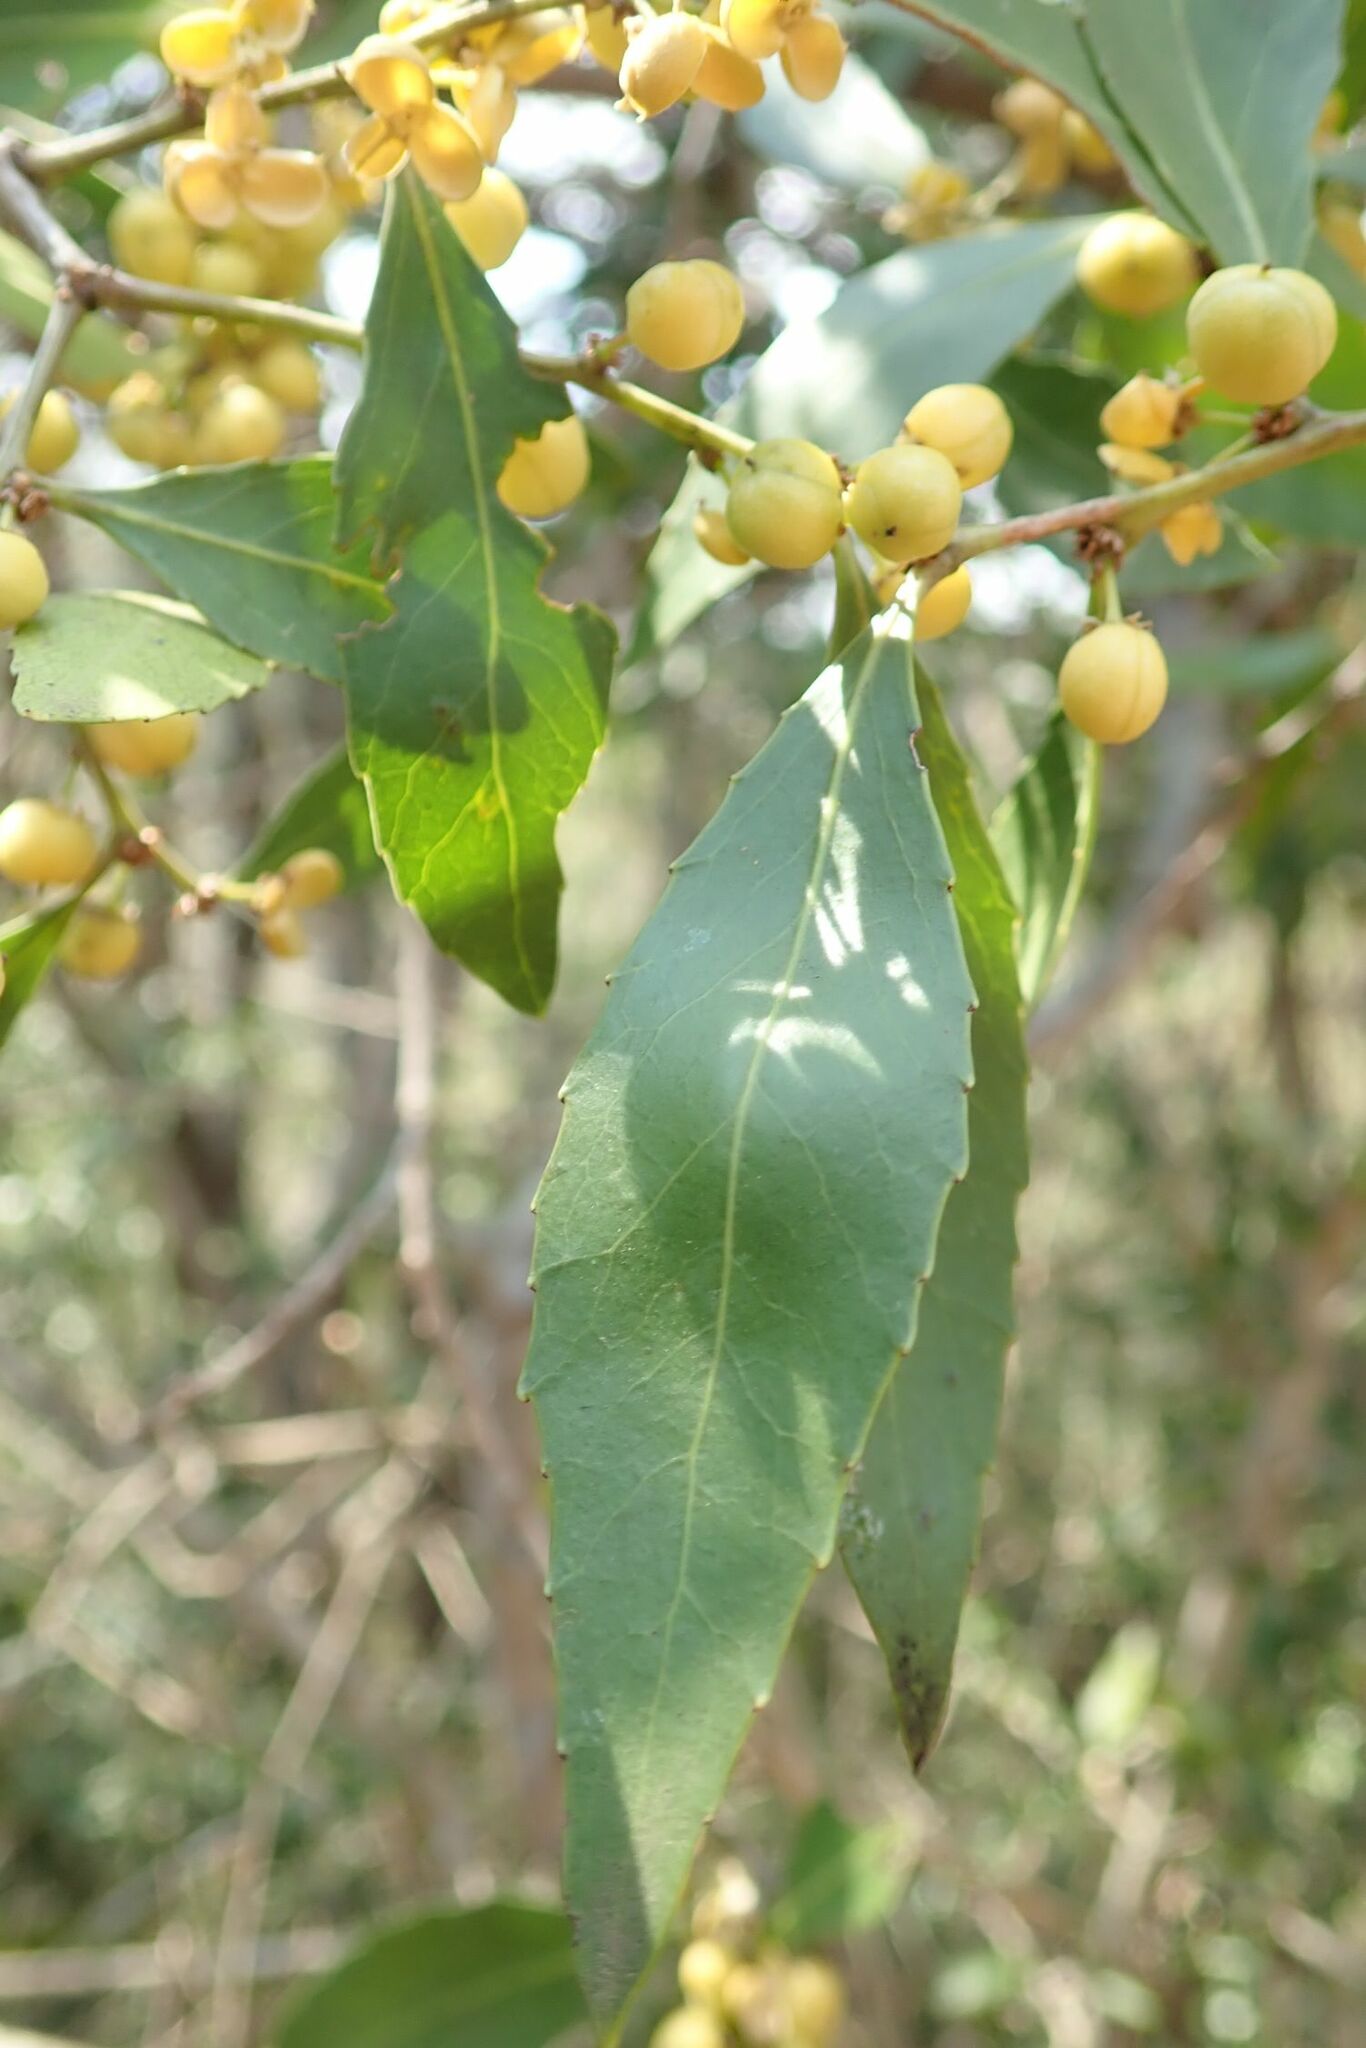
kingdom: Plantae
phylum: Tracheophyta
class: Magnoliopsida
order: Celastrales
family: Celastraceae
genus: Gymnosporia
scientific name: Gymnosporia undata
